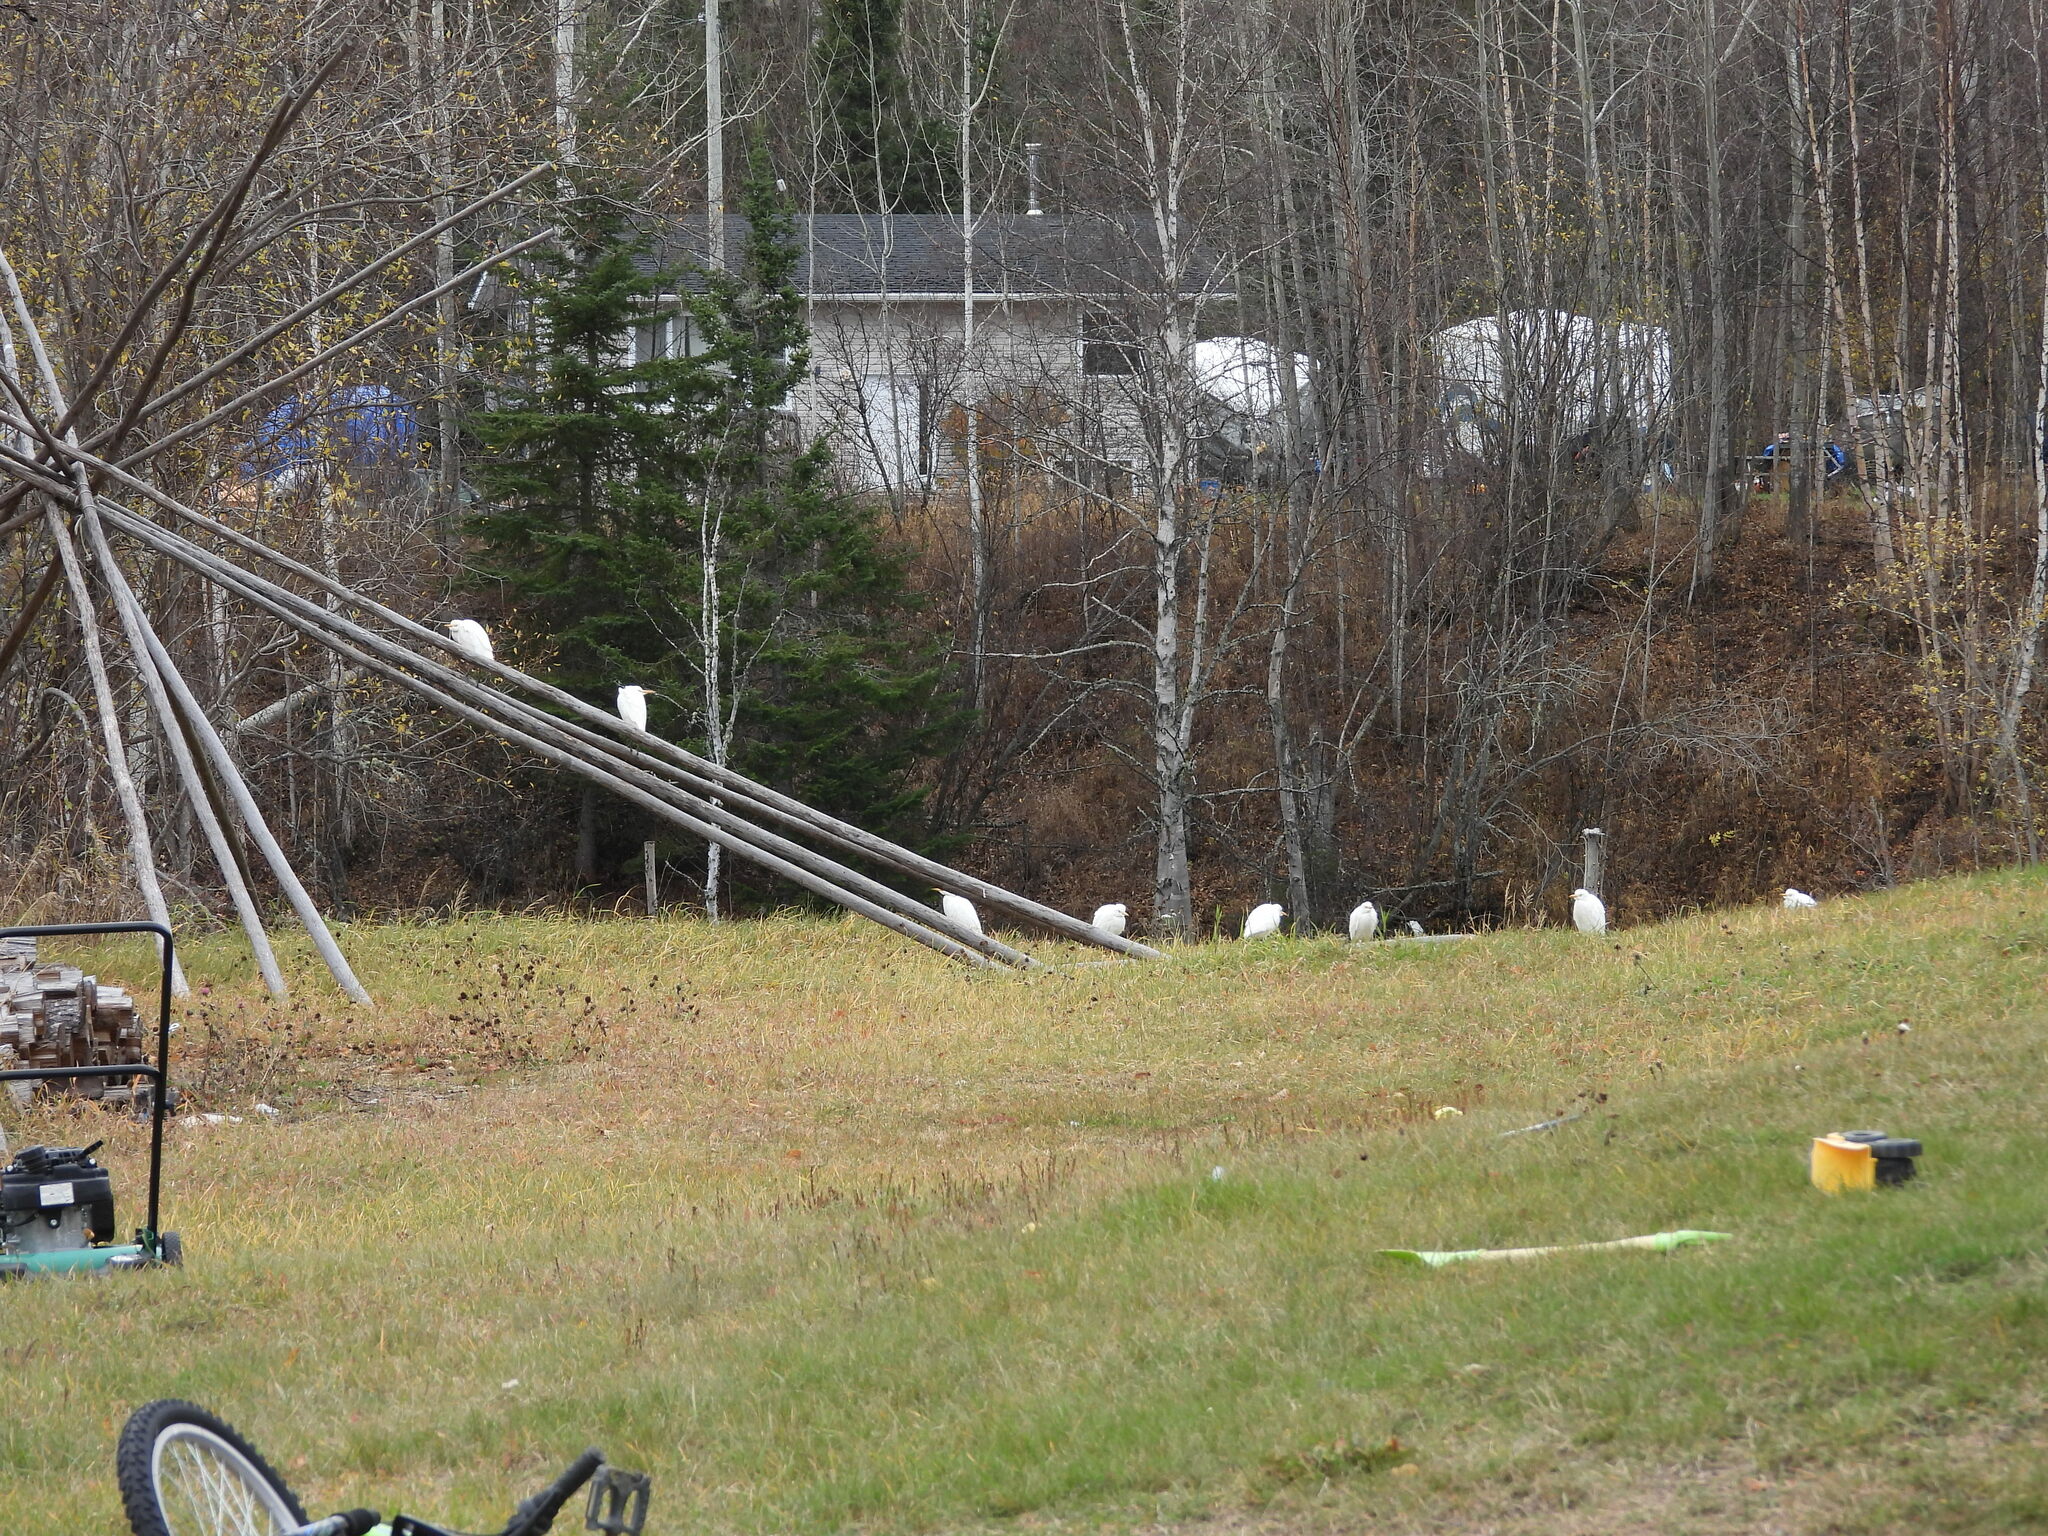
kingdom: Animalia
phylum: Chordata
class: Aves
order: Pelecaniformes
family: Ardeidae
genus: Bubulcus
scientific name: Bubulcus ibis
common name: Cattle egret
